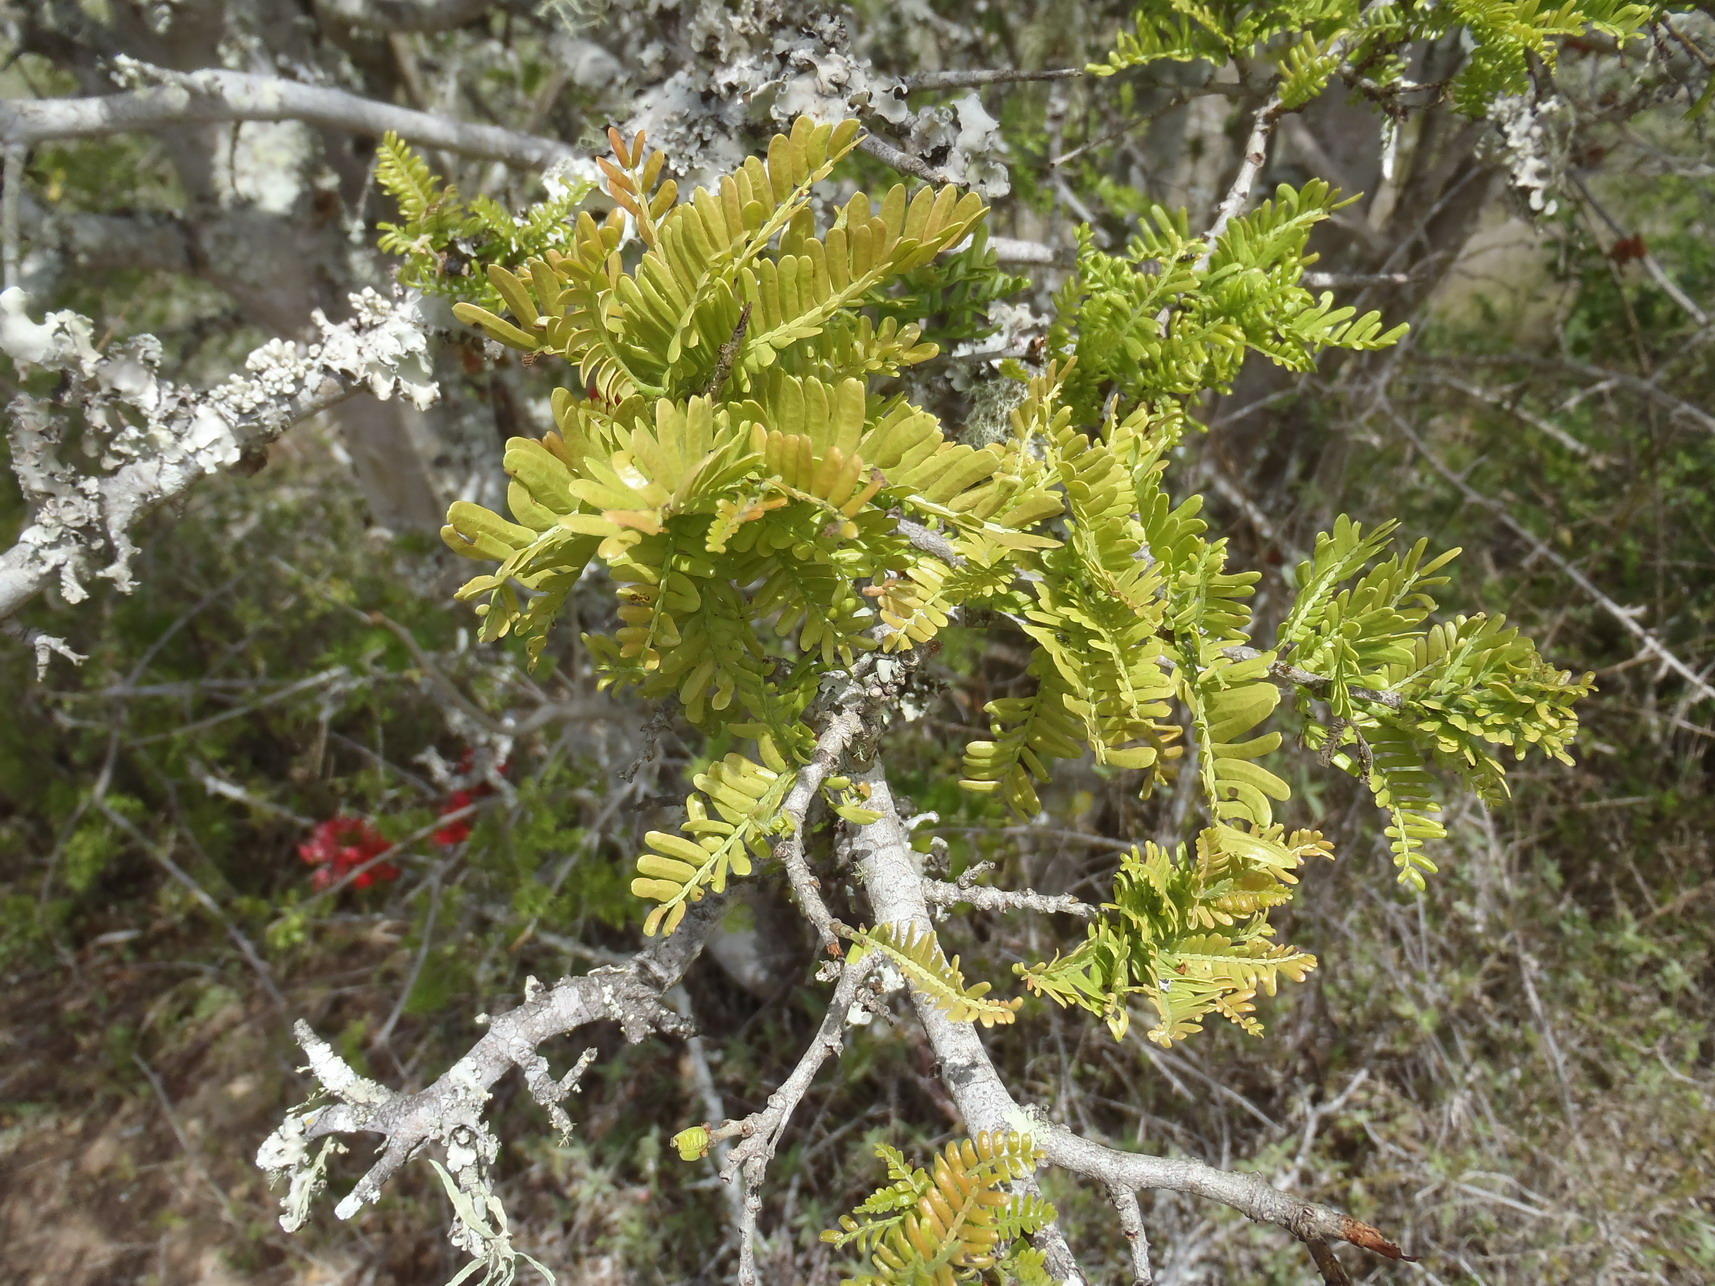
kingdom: Plantae
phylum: Tracheophyta
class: Magnoliopsida
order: Fabales
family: Fabaceae
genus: Schotia
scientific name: Schotia afra
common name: Hottentot's bean
